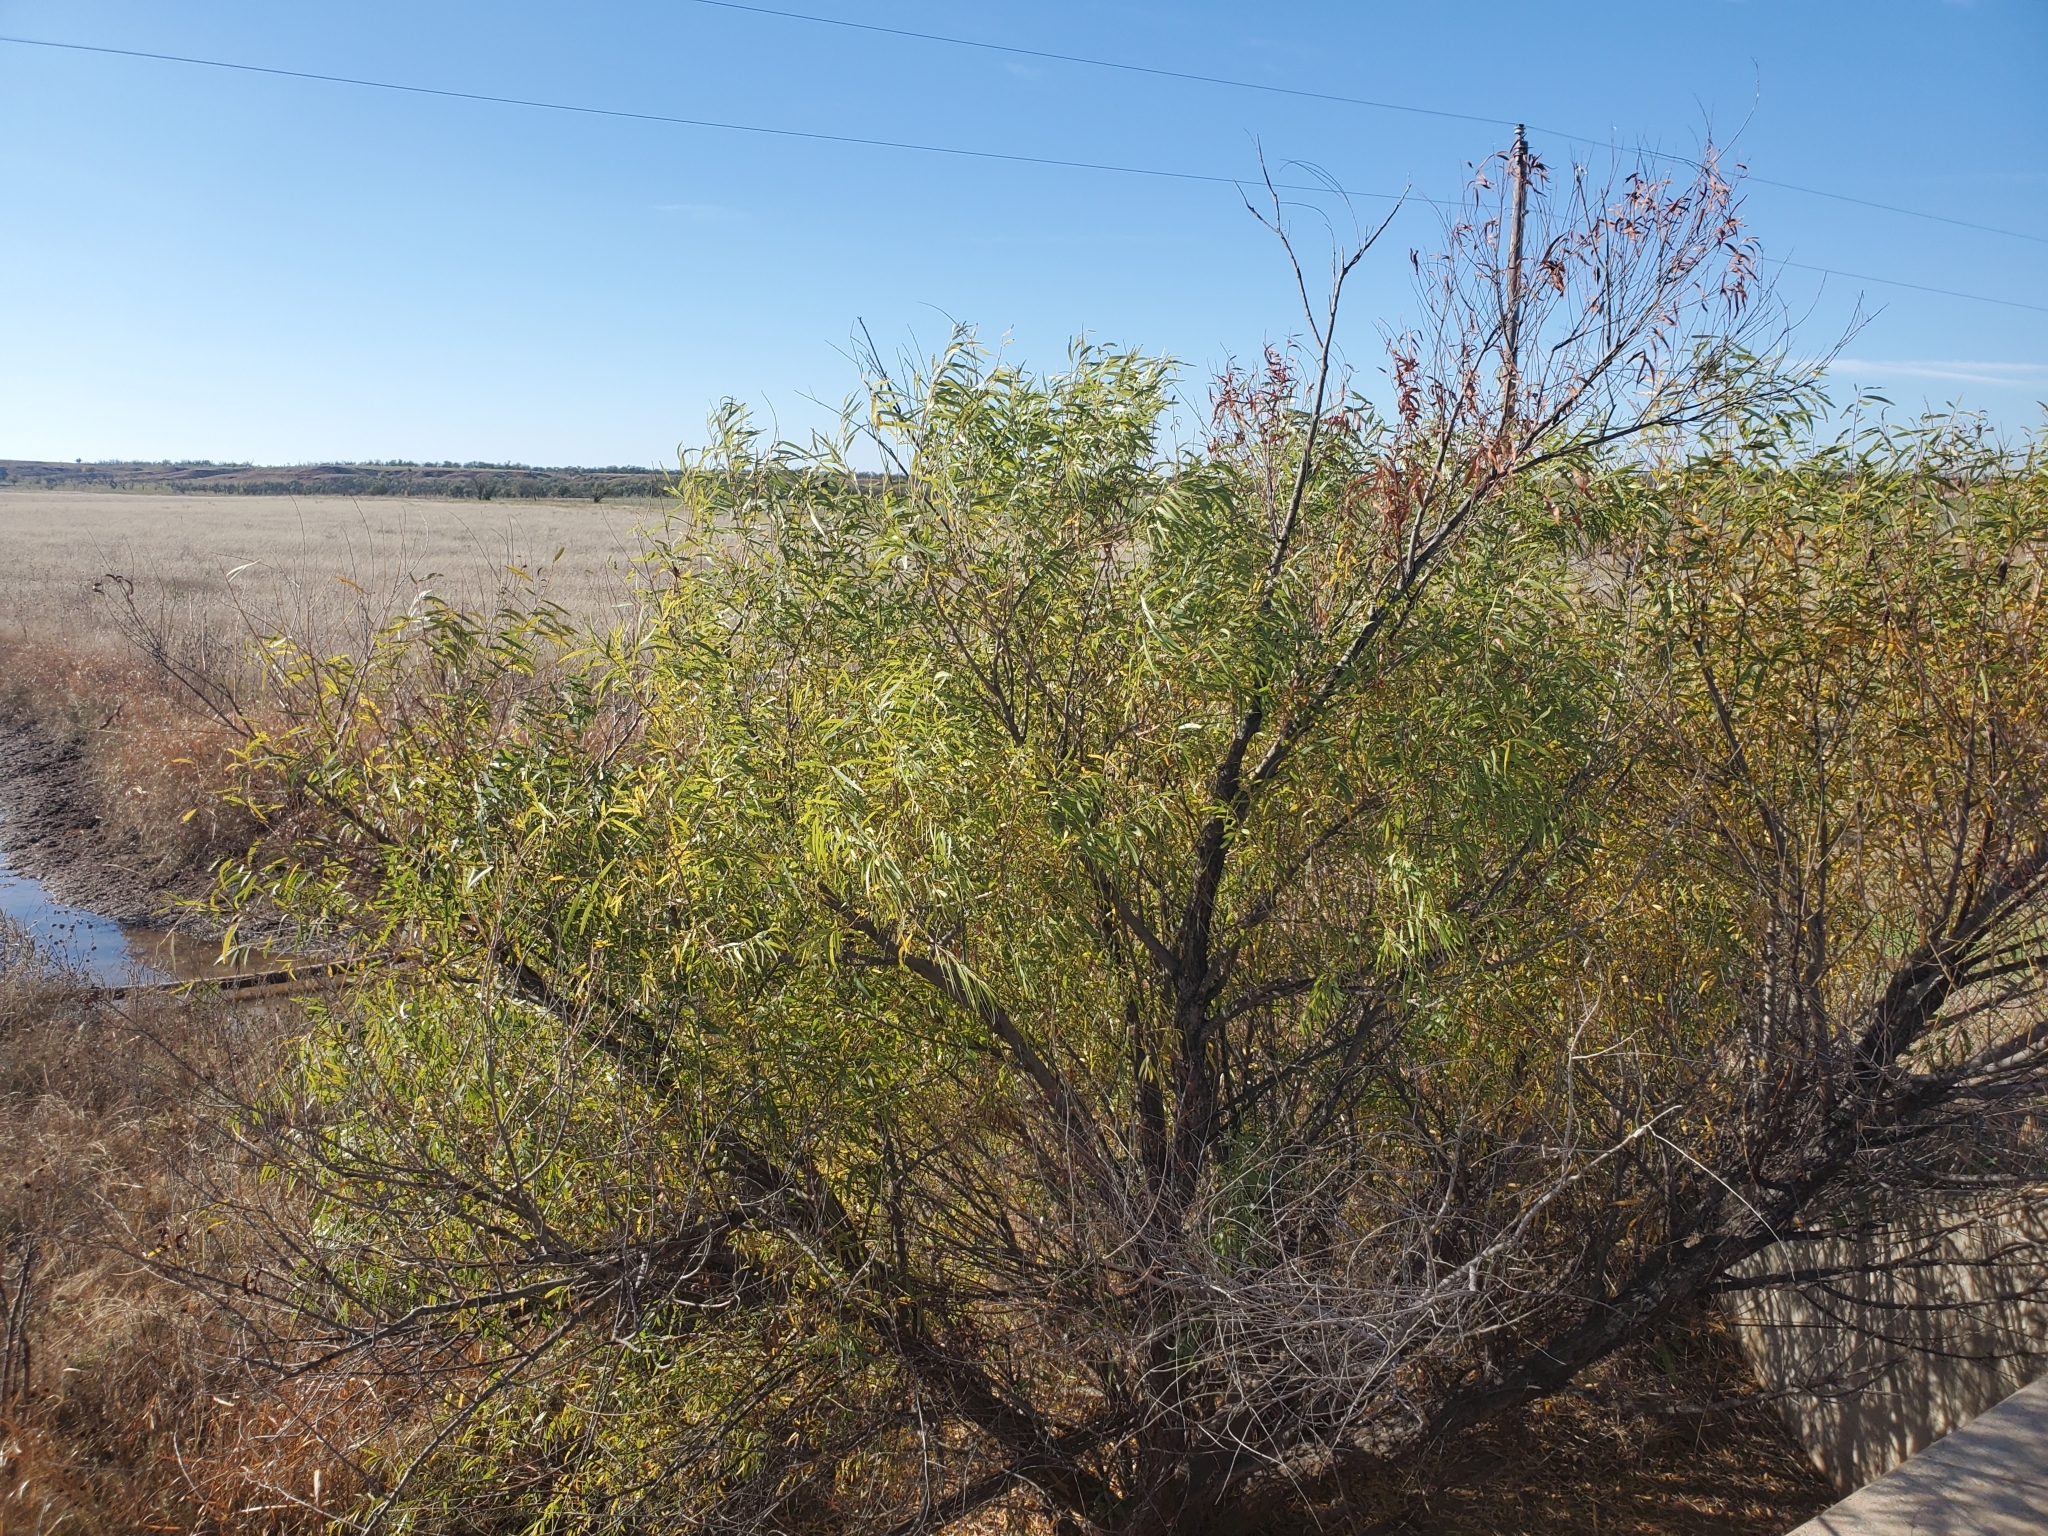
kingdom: Plantae
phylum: Tracheophyta
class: Magnoliopsida
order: Malpighiales
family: Salicaceae
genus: Salix
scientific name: Salix nigra
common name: Black willow
